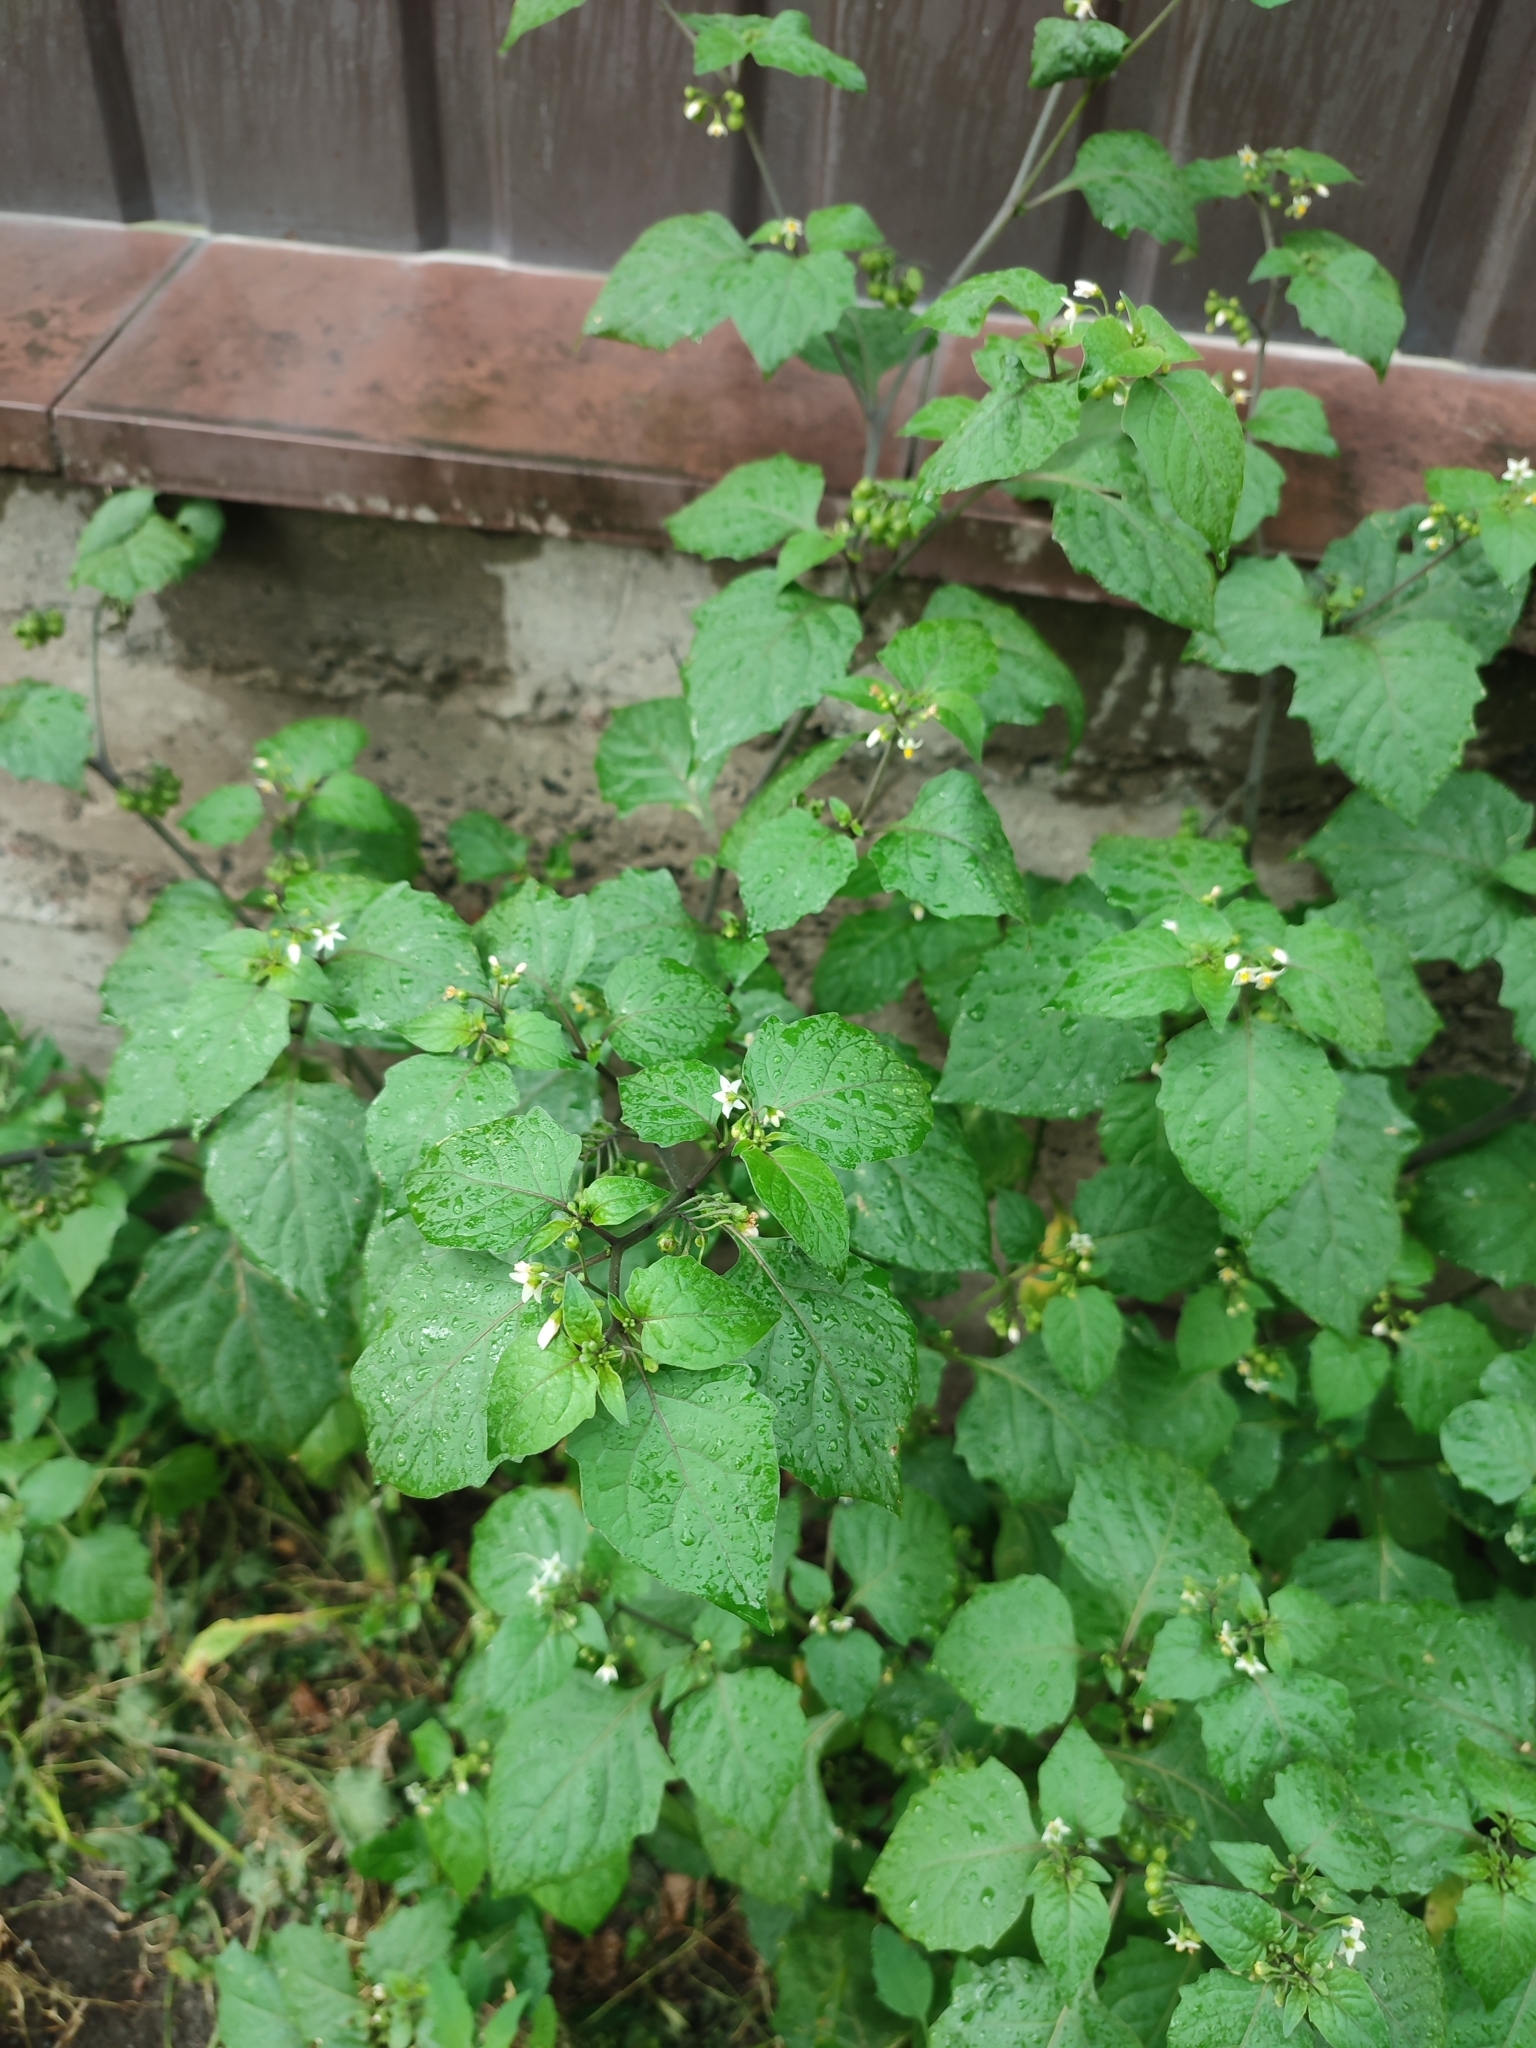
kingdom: Plantae
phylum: Tracheophyta
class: Magnoliopsida
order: Solanales
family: Solanaceae
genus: Solanum
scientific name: Solanum nigrum
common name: Black nightshade
